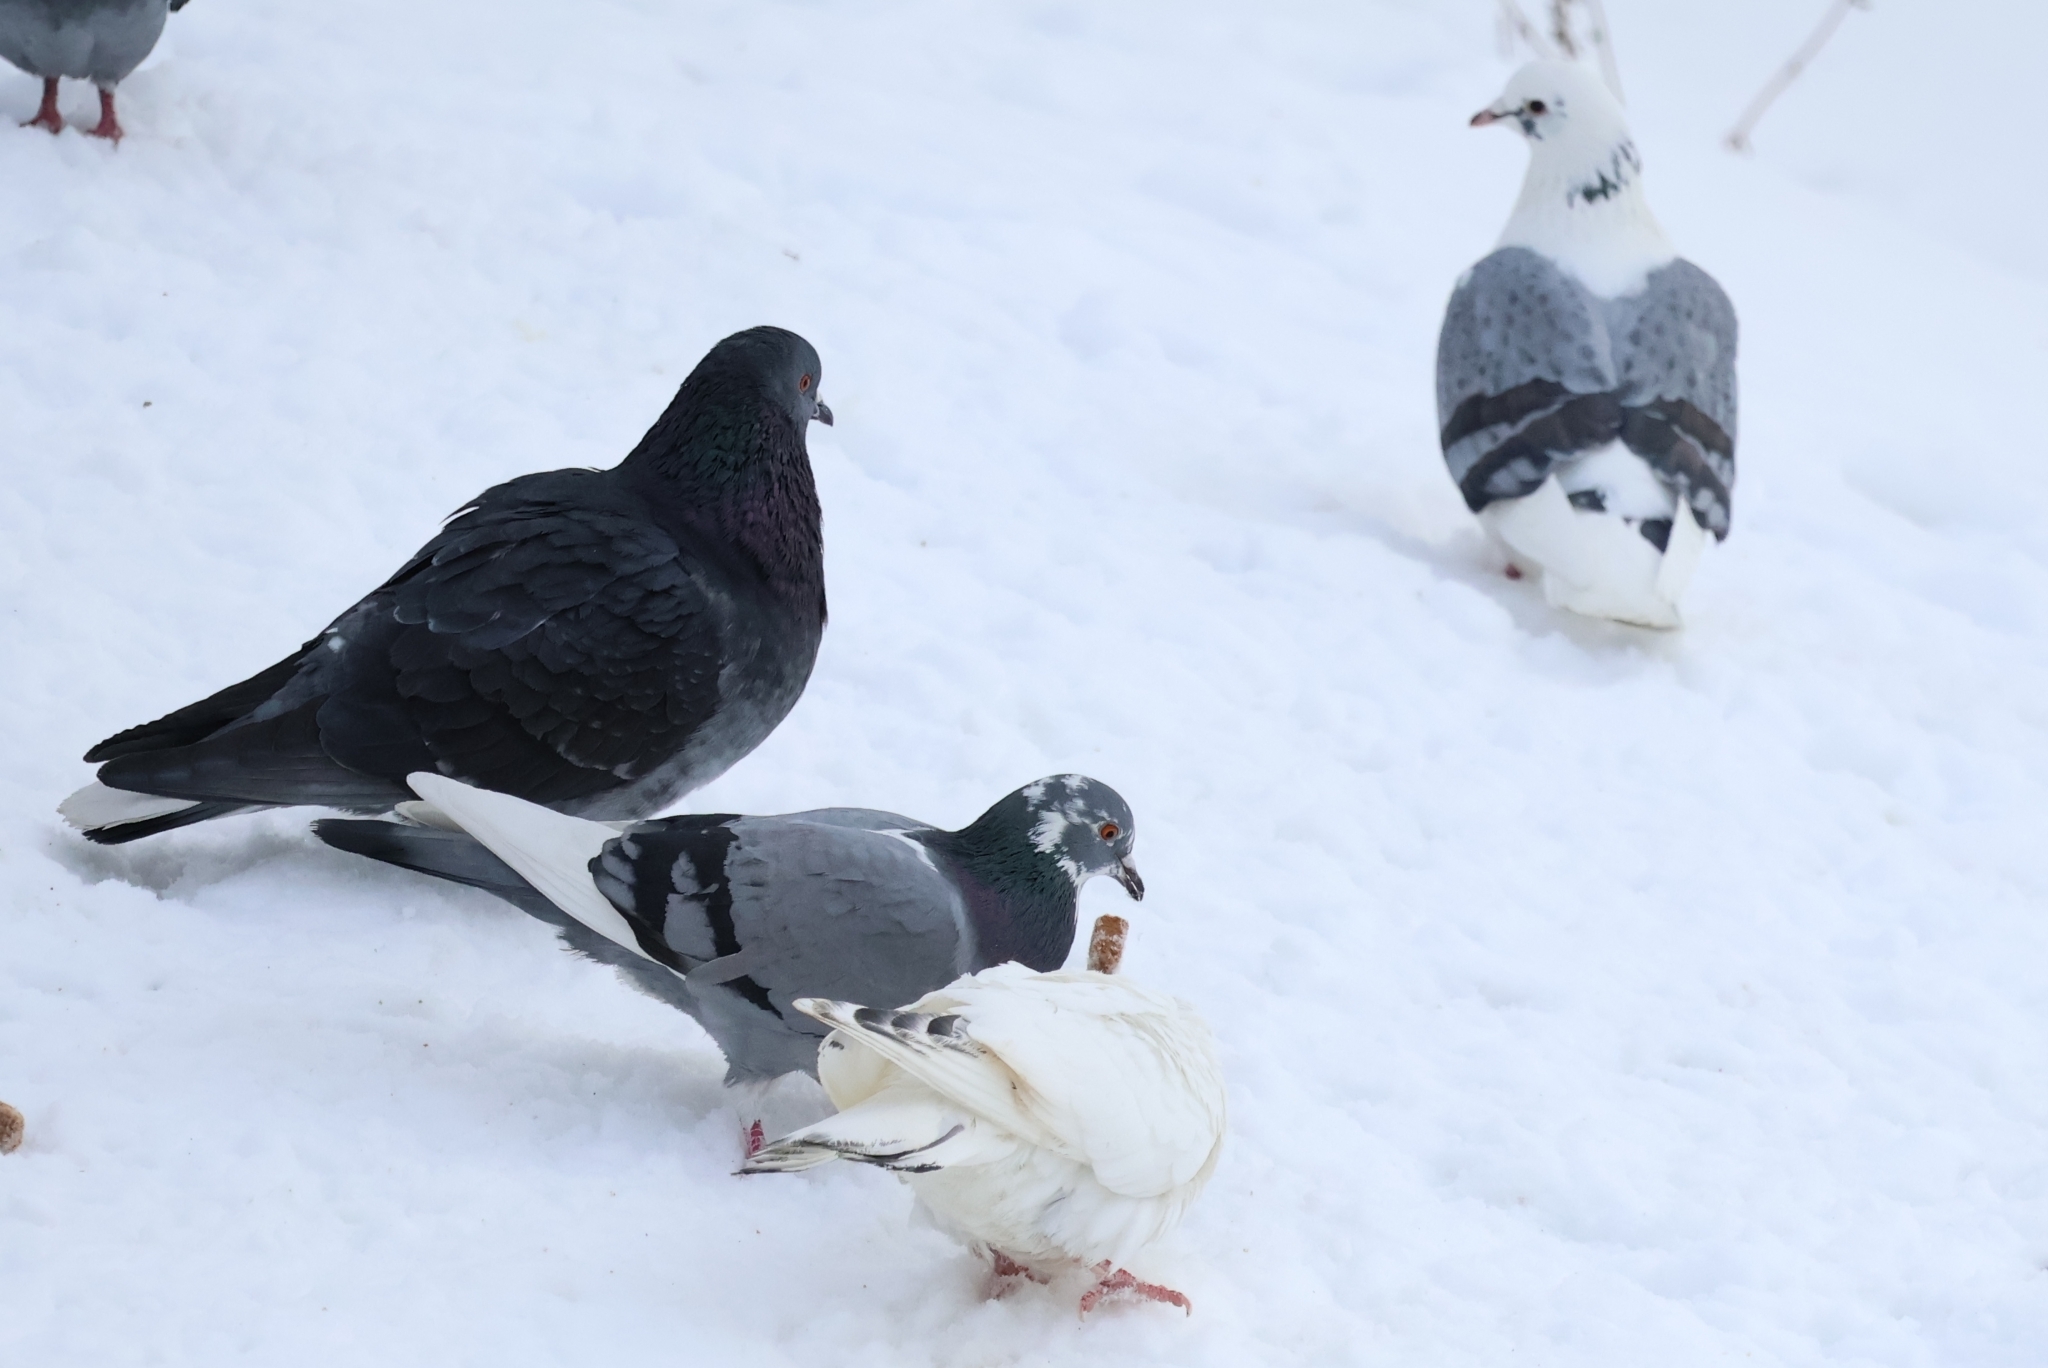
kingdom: Animalia
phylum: Chordata
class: Aves
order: Columbiformes
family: Columbidae
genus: Columba
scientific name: Columba livia
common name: Rock pigeon
